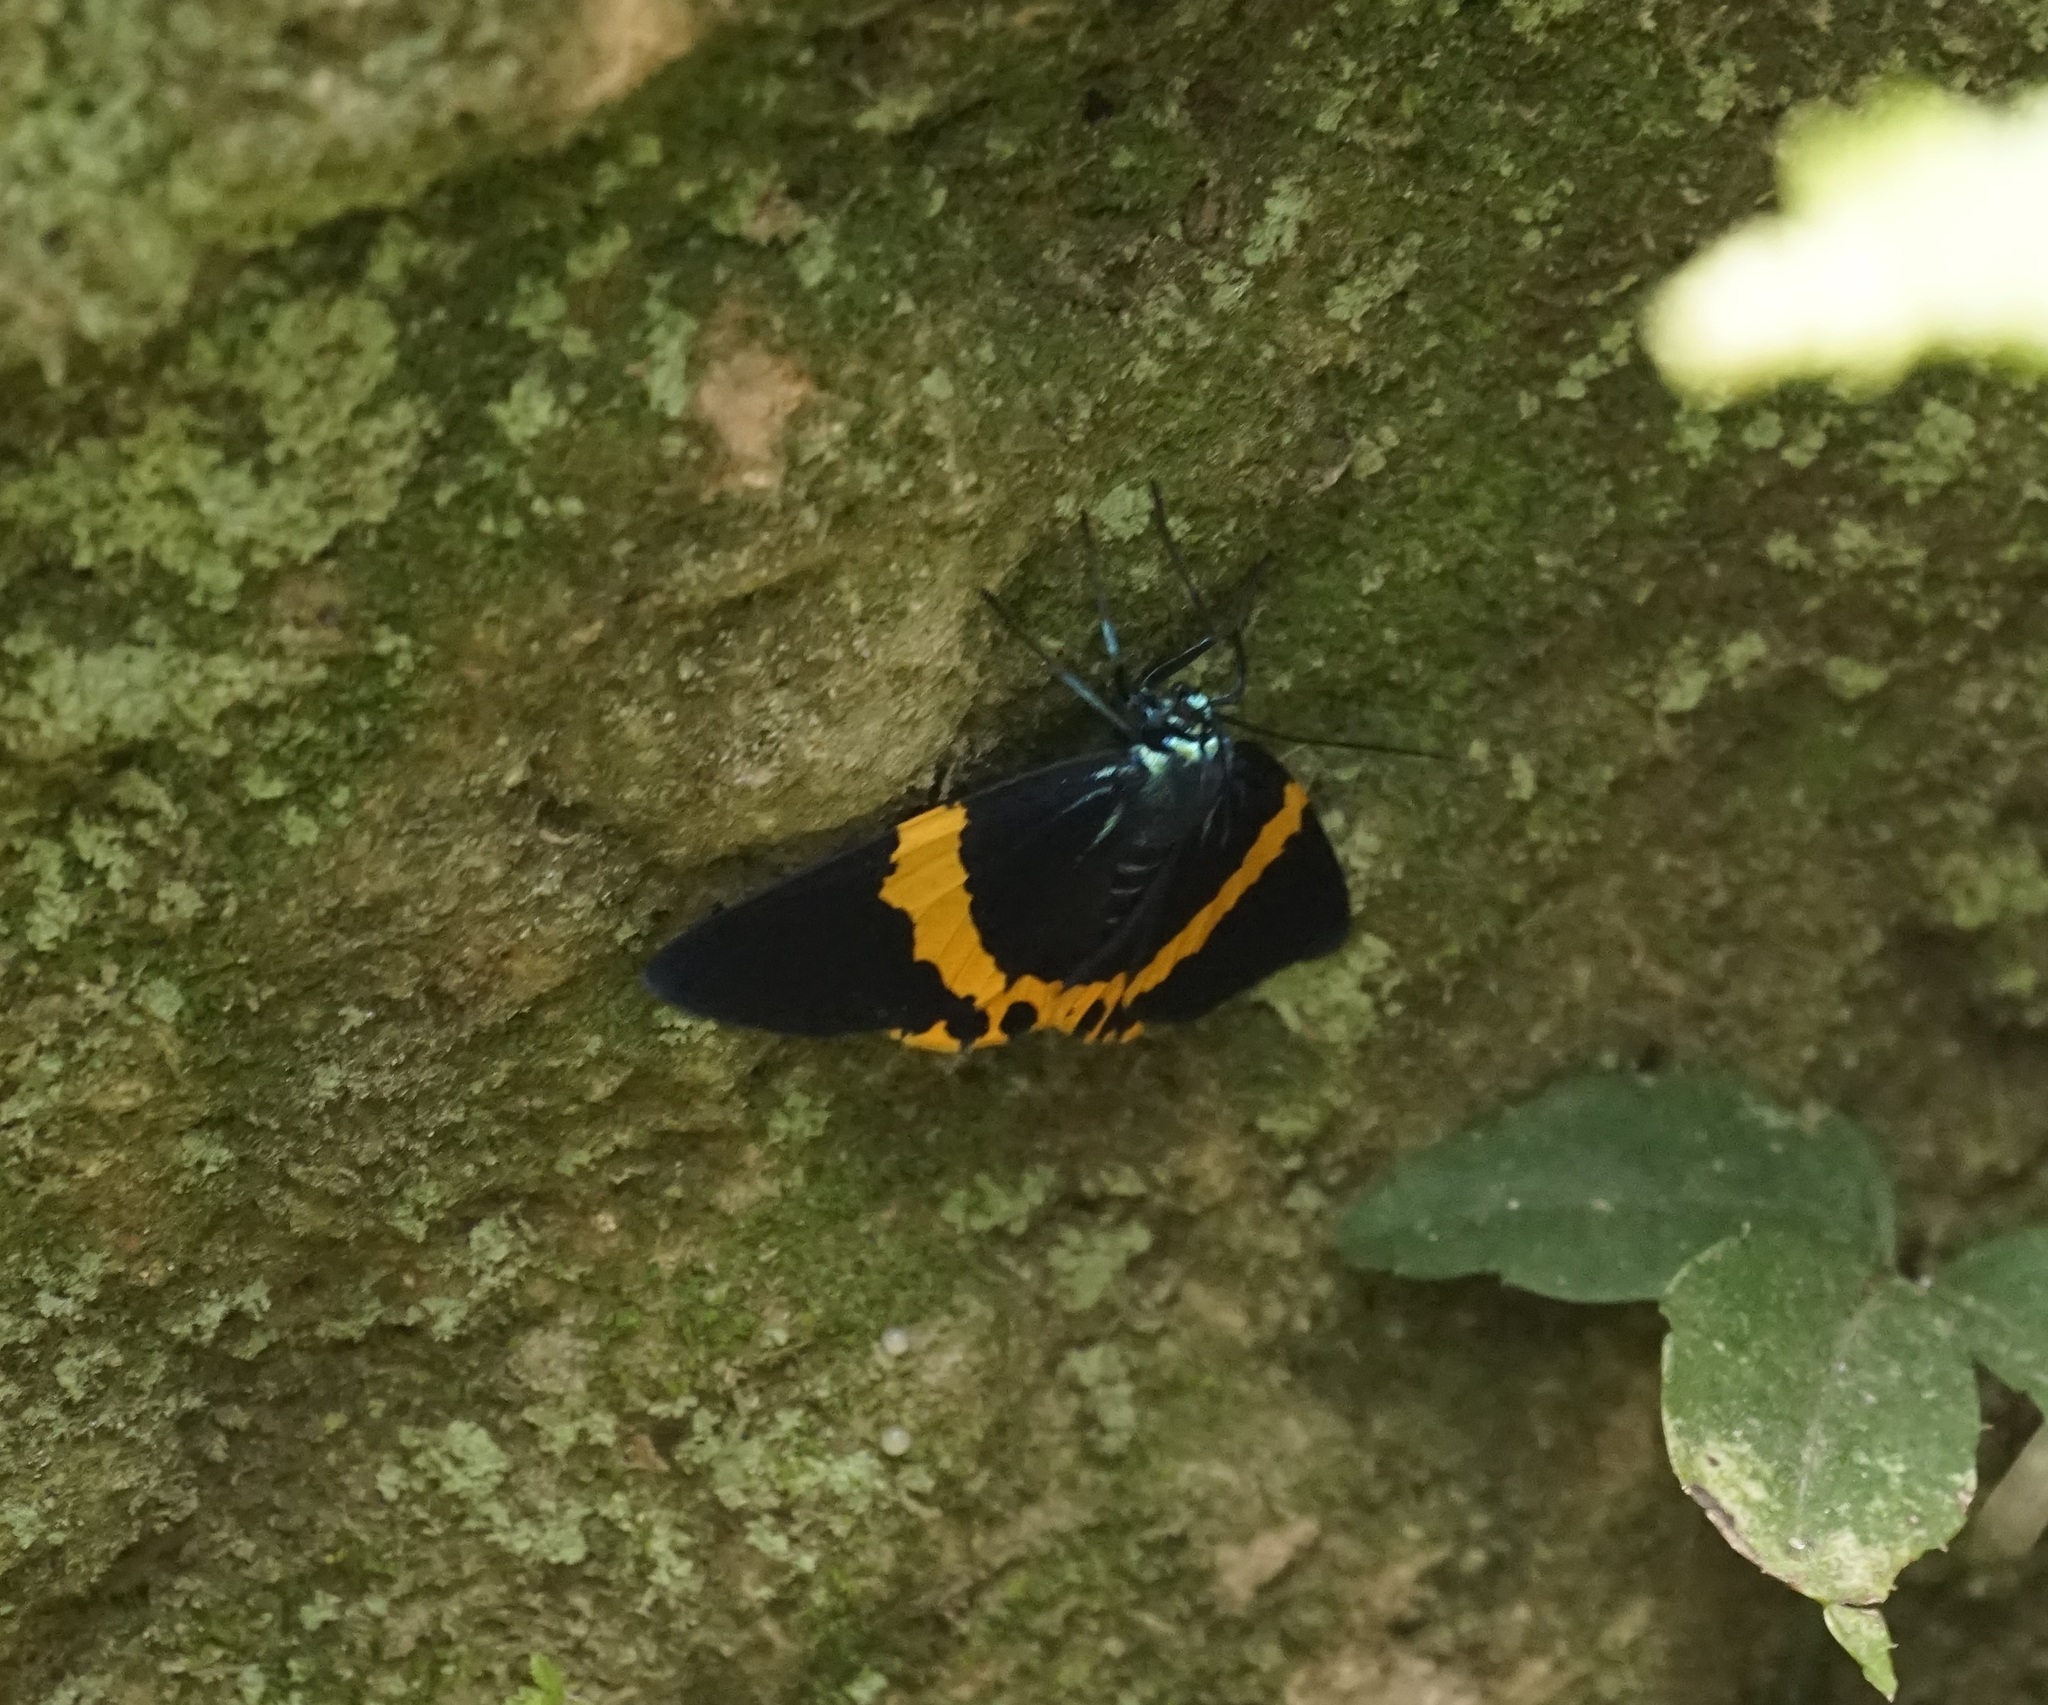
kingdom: Animalia
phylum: Arthropoda
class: Insecta
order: Lepidoptera
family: Geometridae
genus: Milionia
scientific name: Milionia basalis
